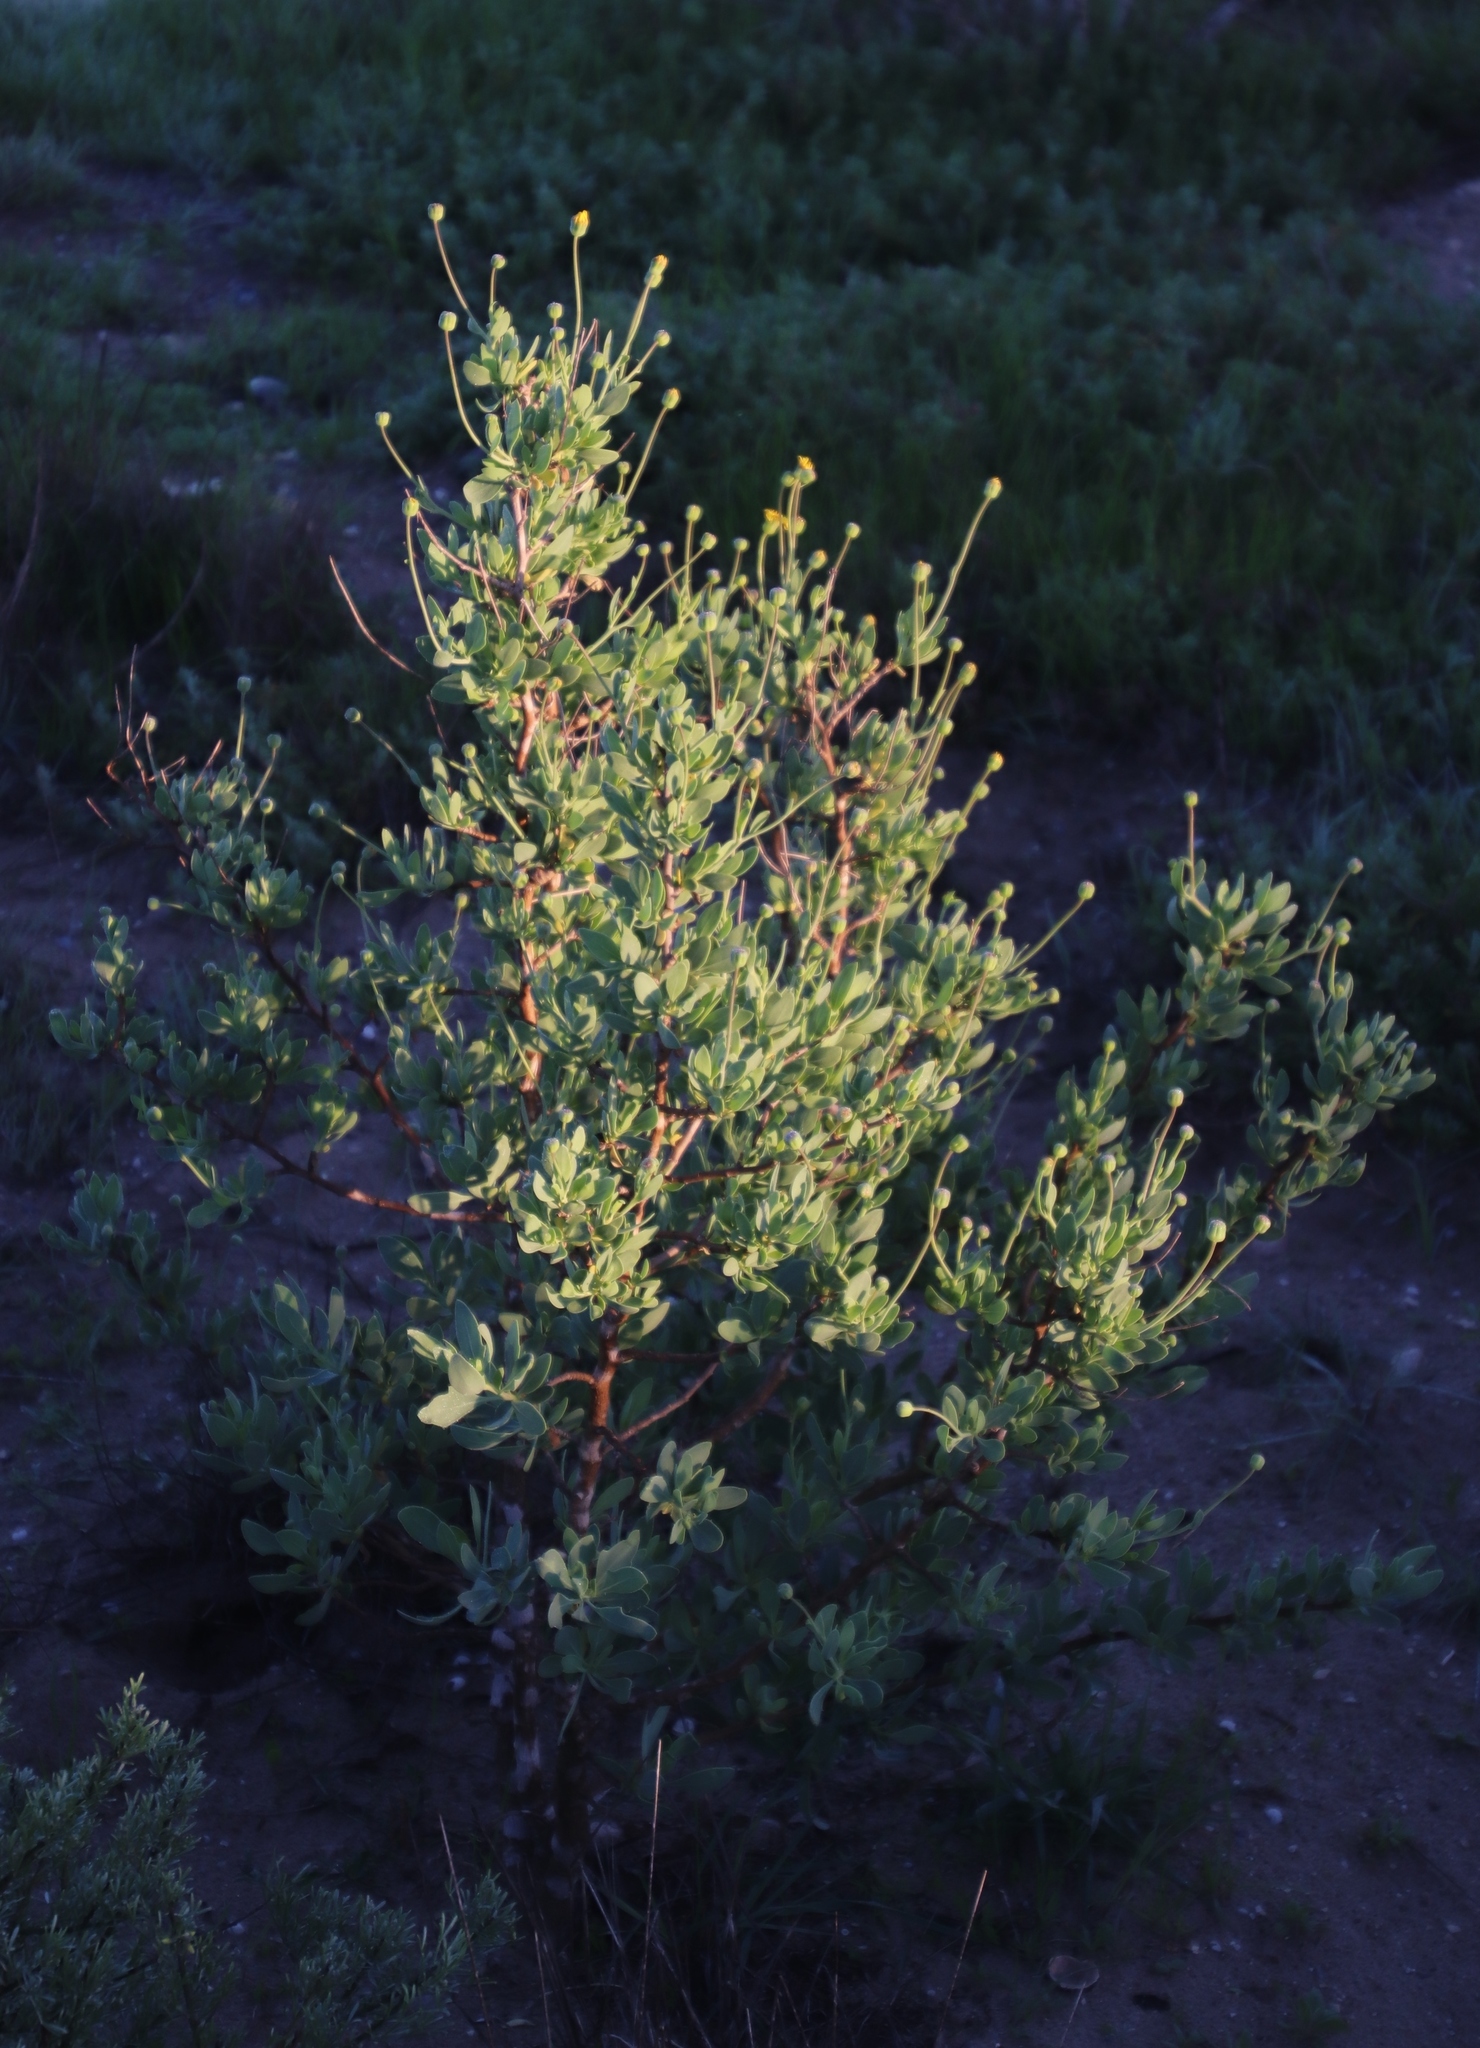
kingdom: Plantae
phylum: Tracheophyta
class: Magnoliopsida
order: Asterales
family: Asteraceae
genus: Othonna
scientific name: Othonna coronopifolia
